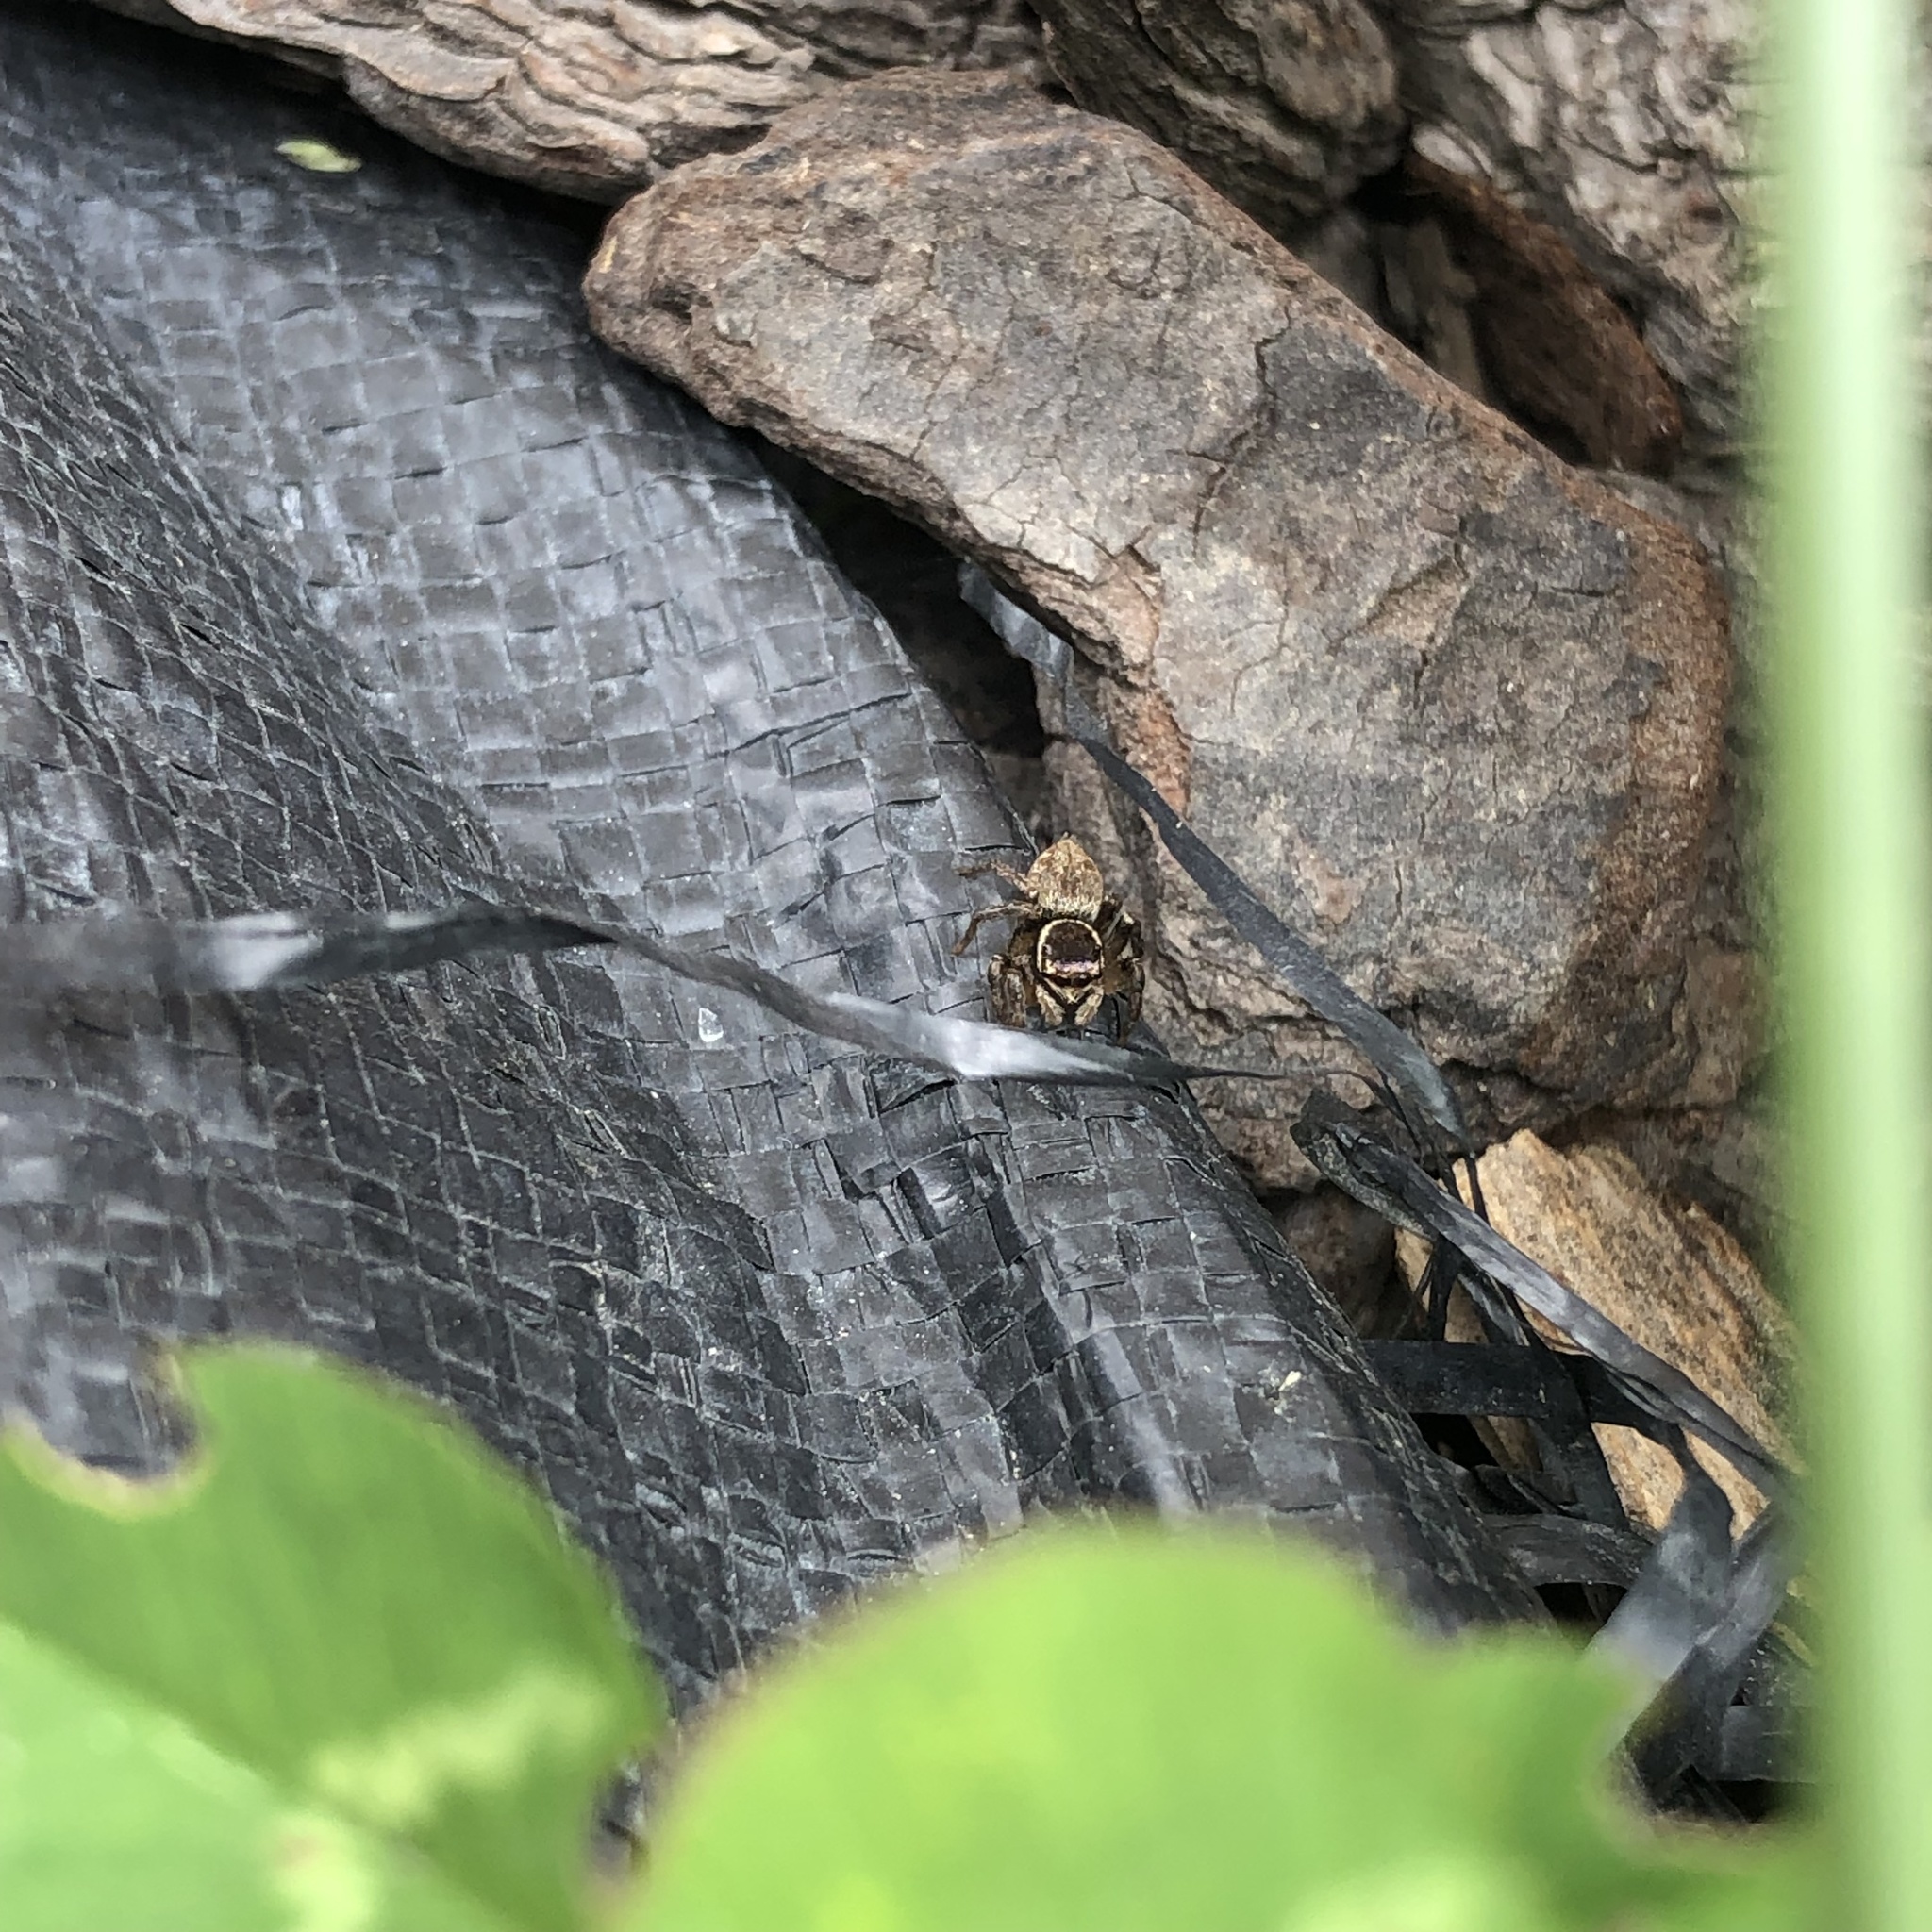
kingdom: Animalia
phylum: Arthropoda
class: Arachnida
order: Araneae
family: Salticidae
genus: Maratus
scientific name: Maratus griseus
